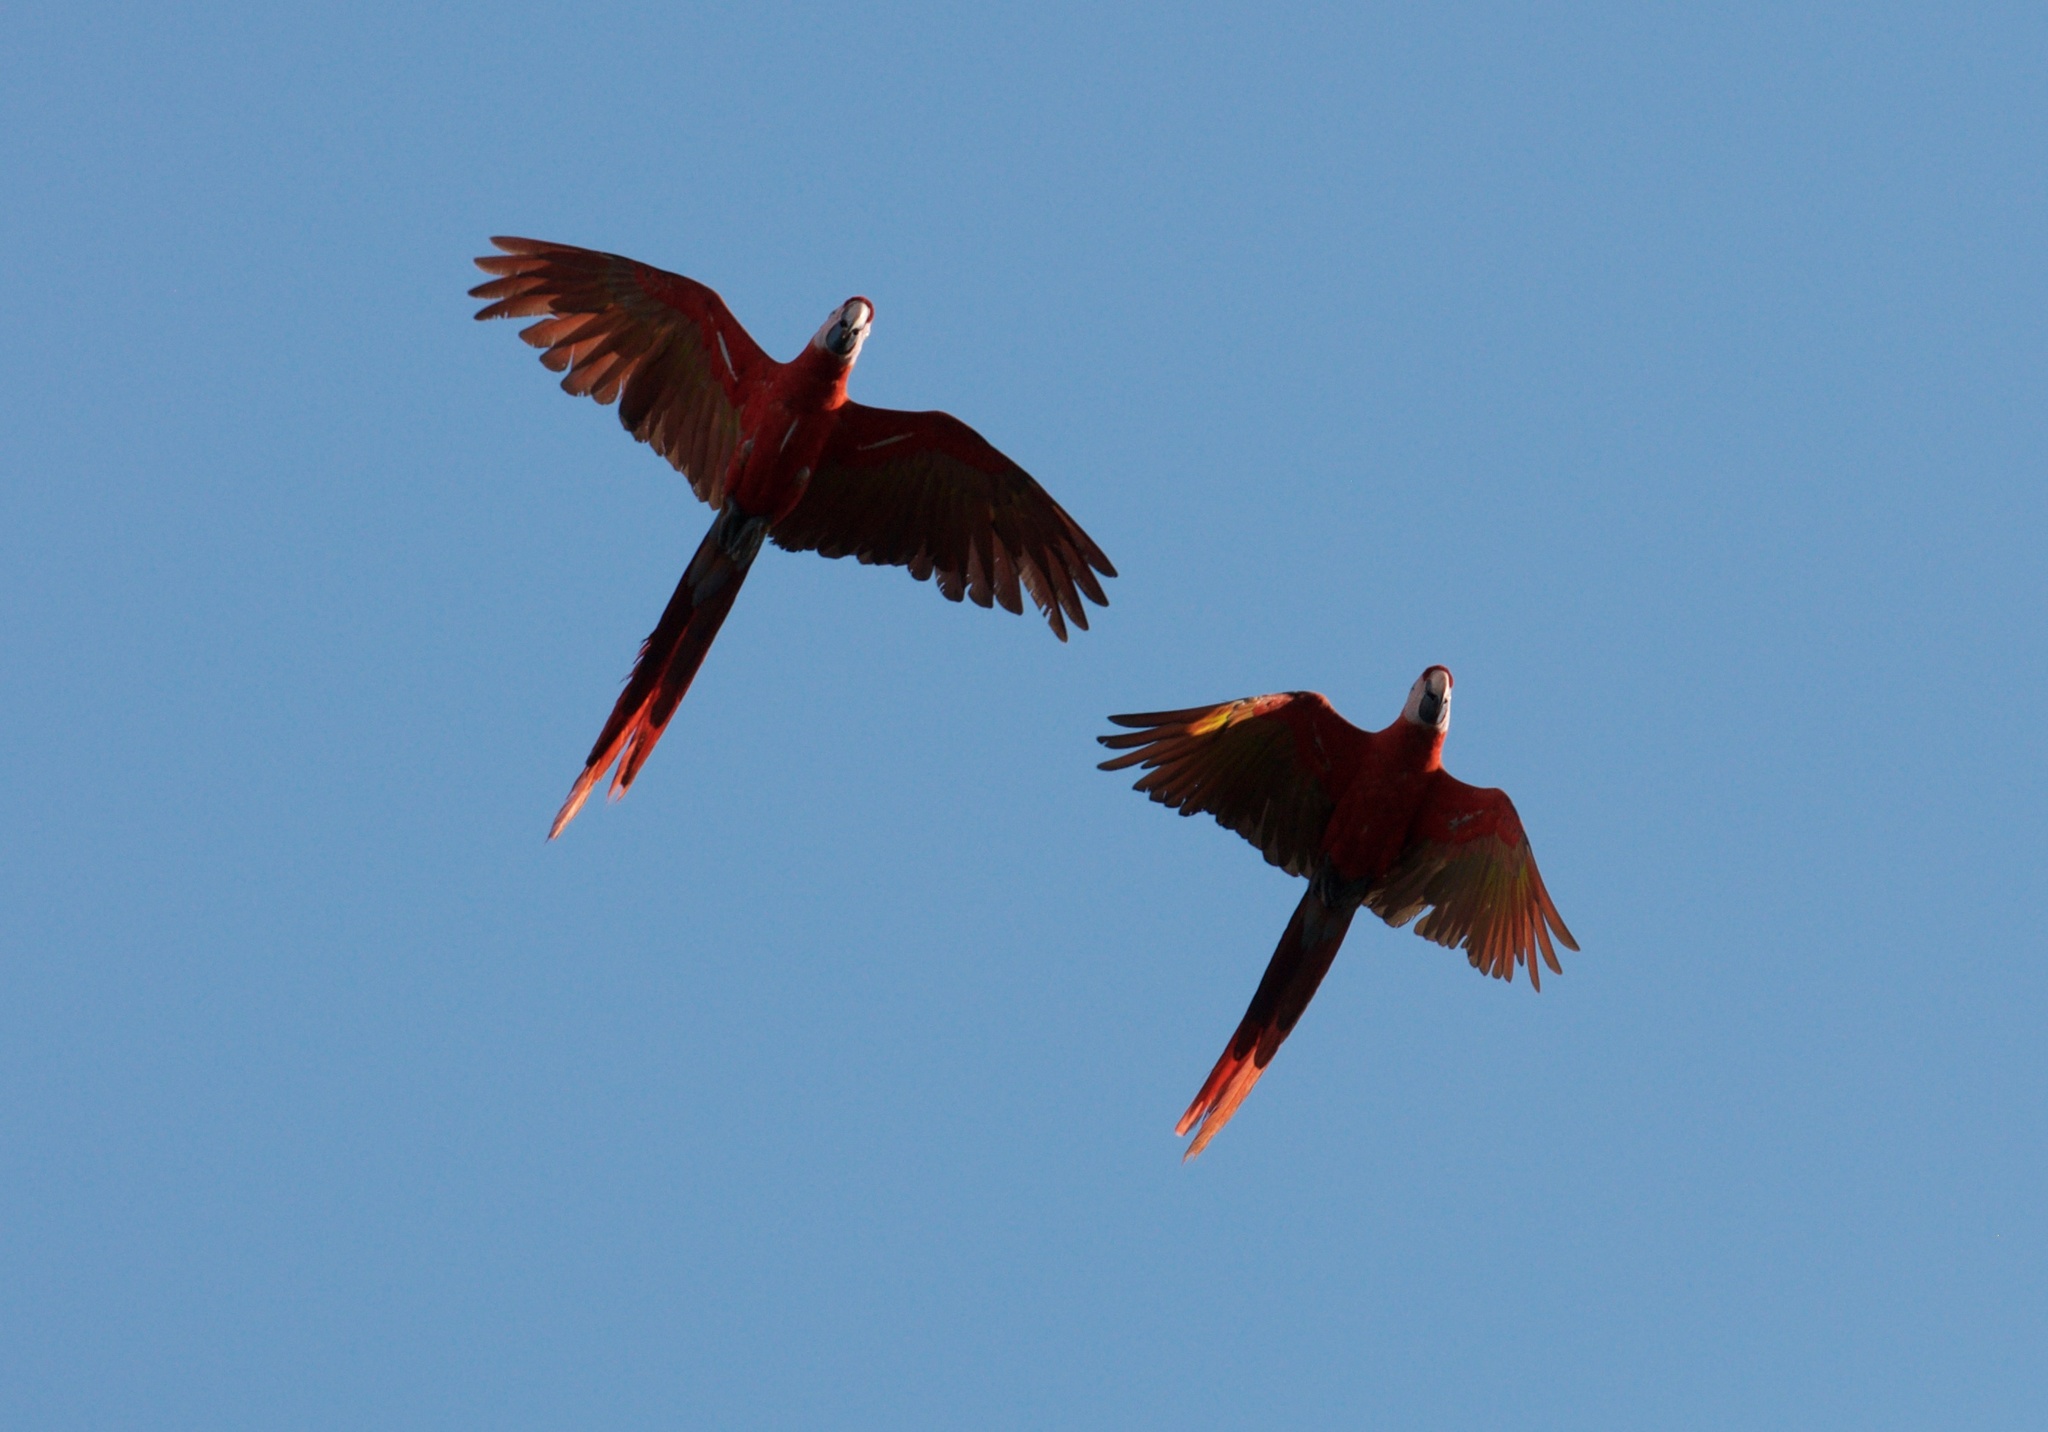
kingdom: Animalia
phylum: Chordata
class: Aves
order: Psittaciformes
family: Psittacidae
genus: Ara
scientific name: Ara macao
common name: Scarlet macaw
